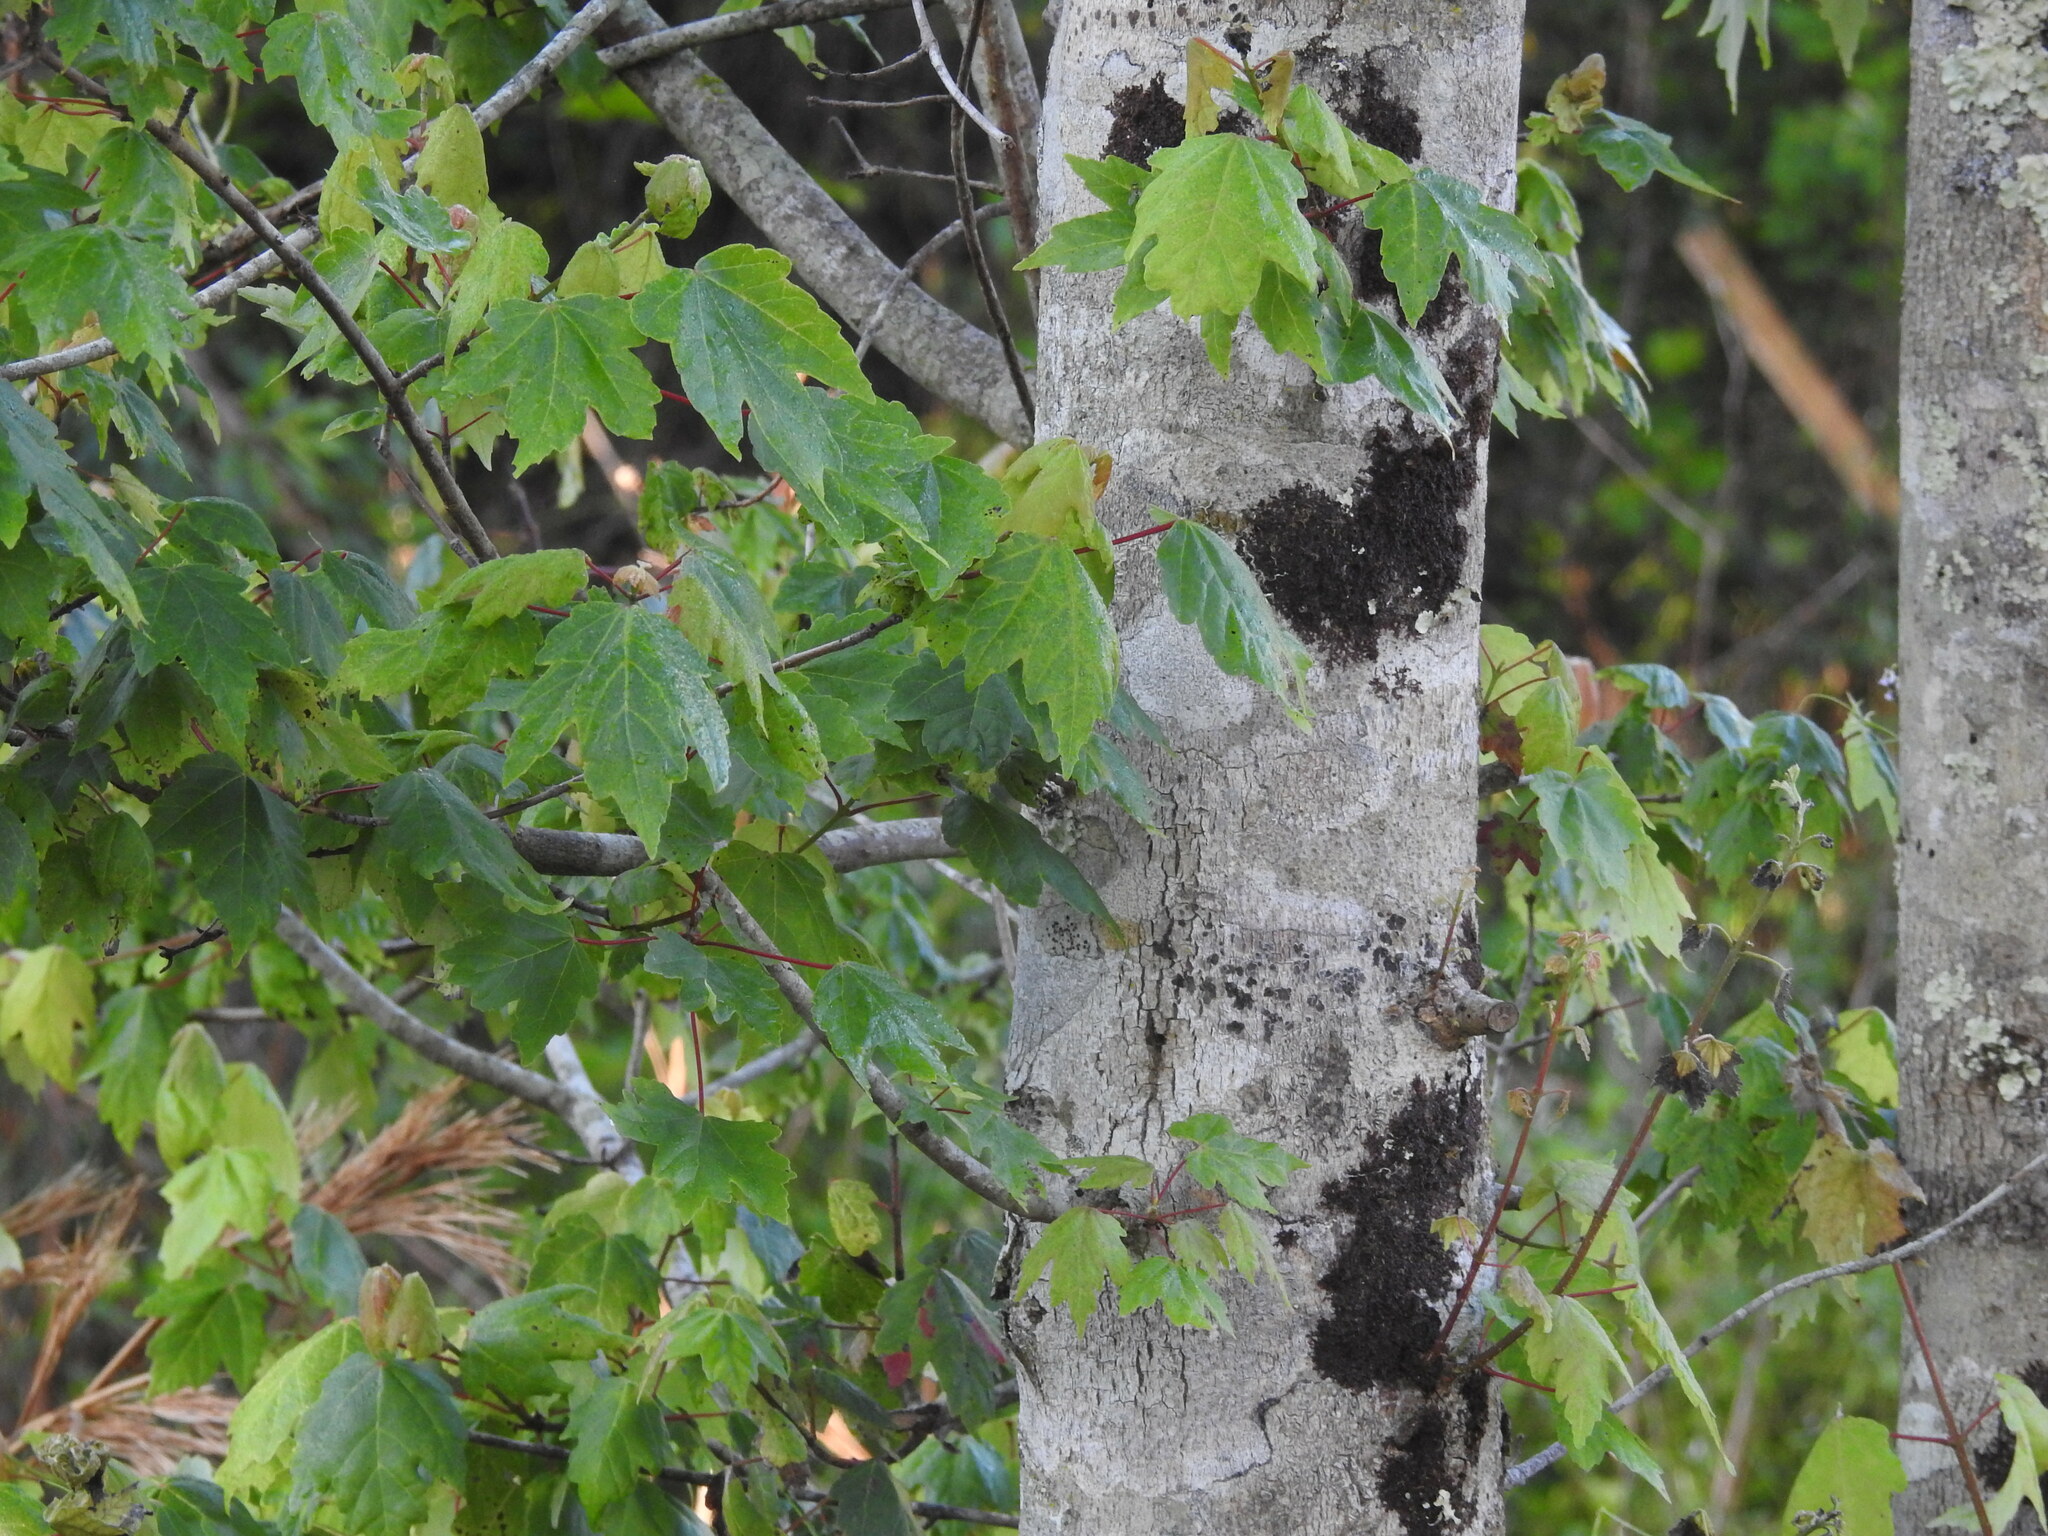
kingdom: Plantae
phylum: Tracheophyta
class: Magnoliopsida
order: Sapindales
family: Sapindaceae
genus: Acer
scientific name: Acer rubrum
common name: Red maple
